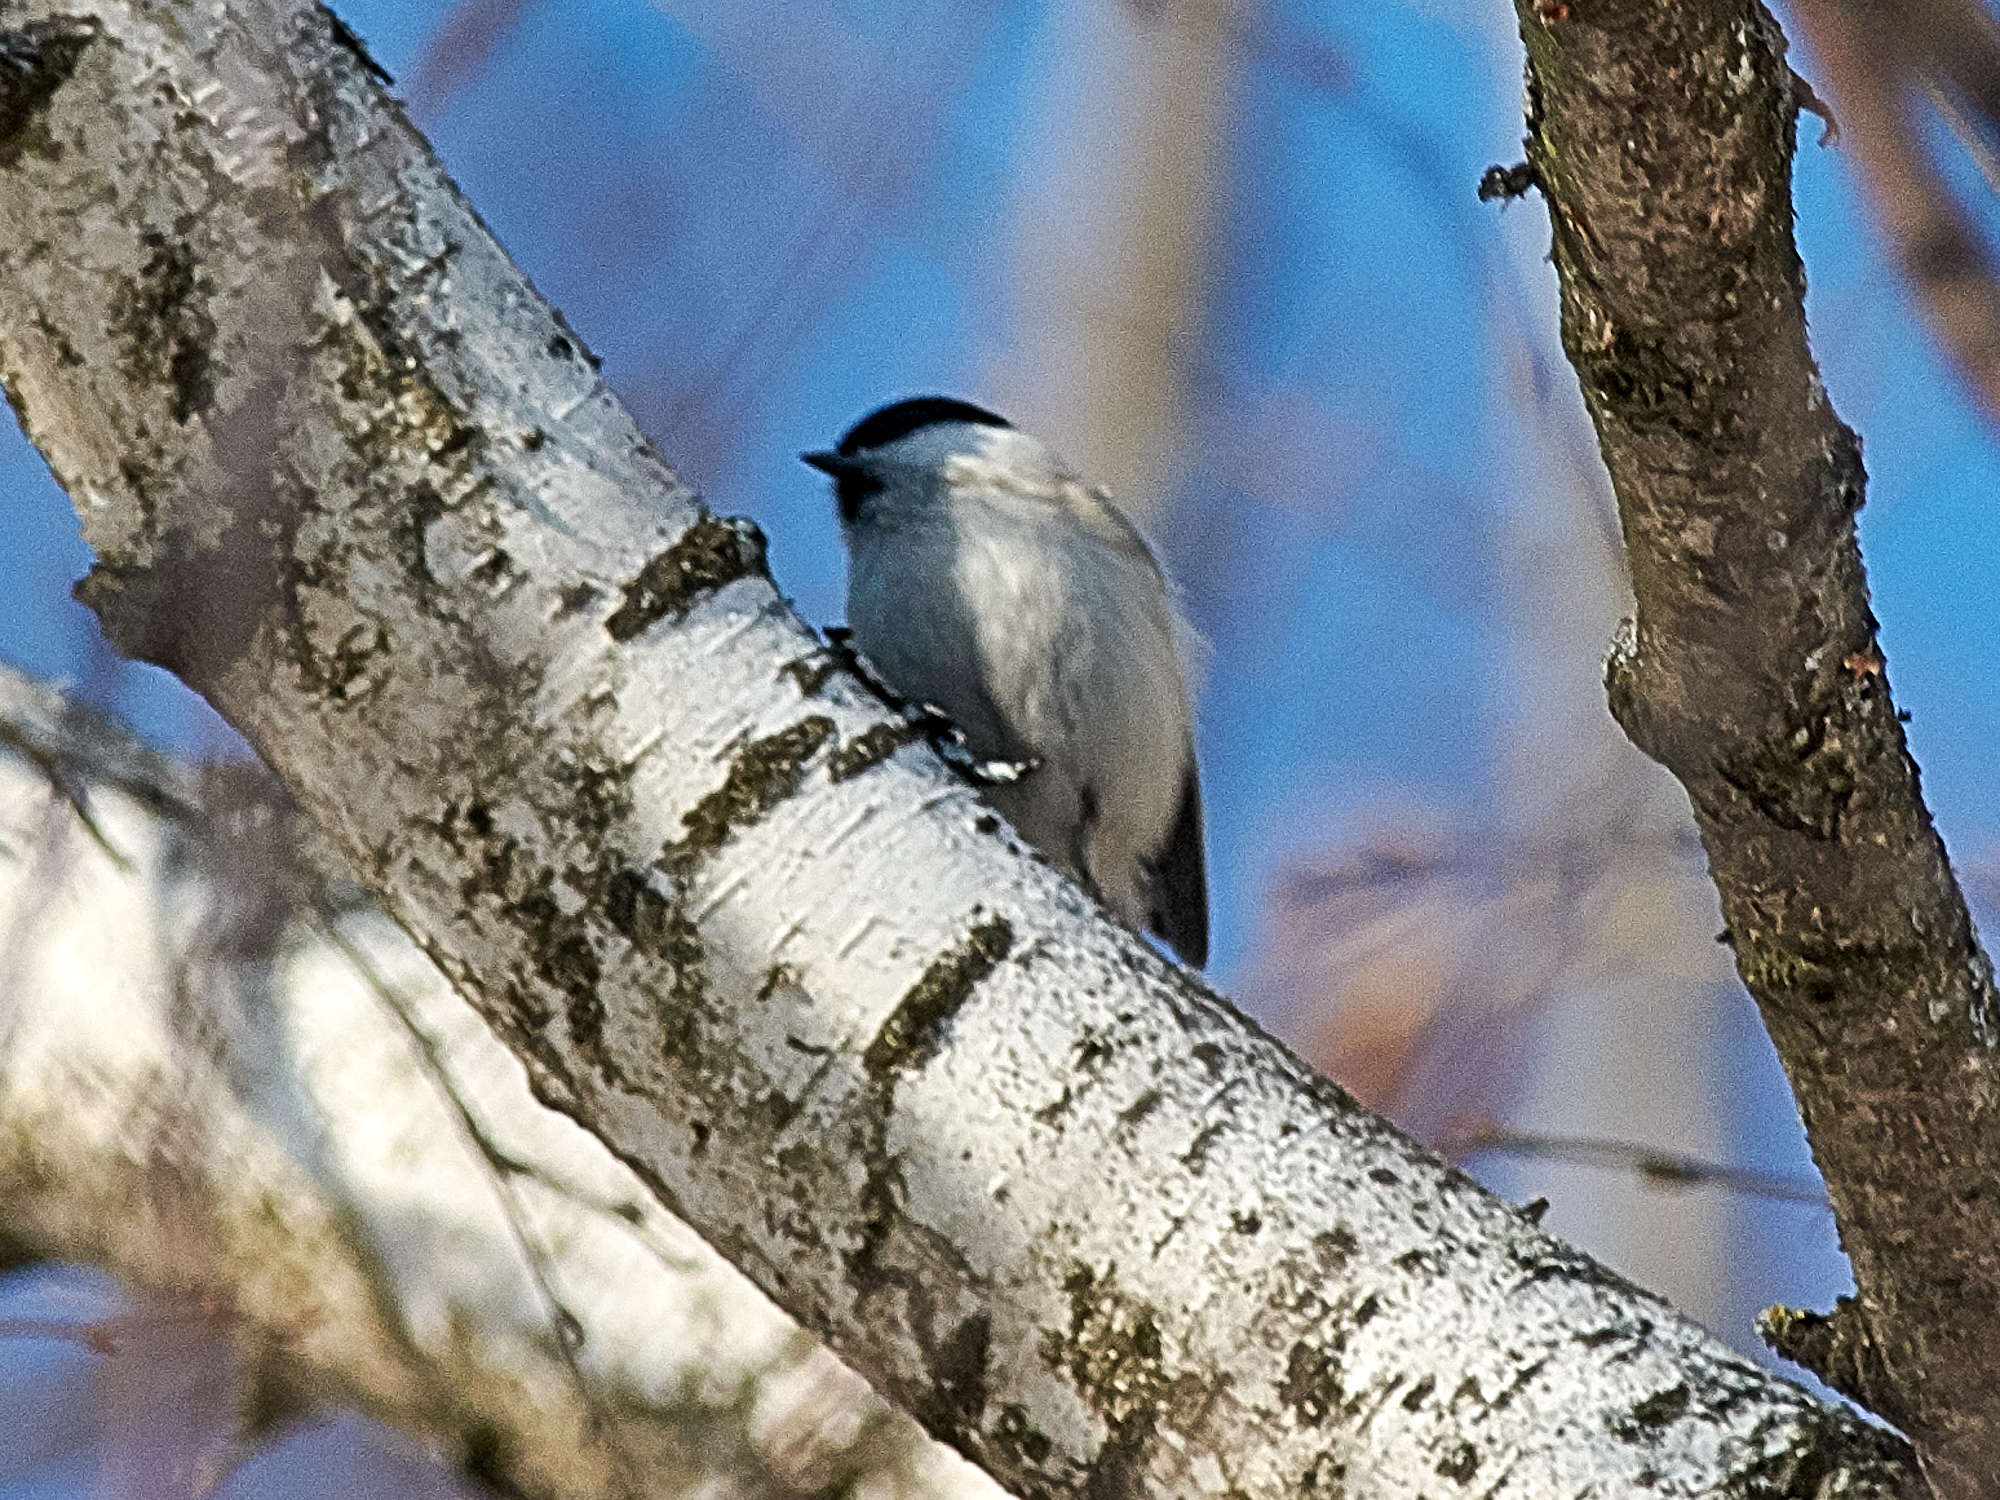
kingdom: Animalia
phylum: Chordata
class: Aves
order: Passeriformes
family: Paridae
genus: Poecile
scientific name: Poecile montanus
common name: Willow tit
